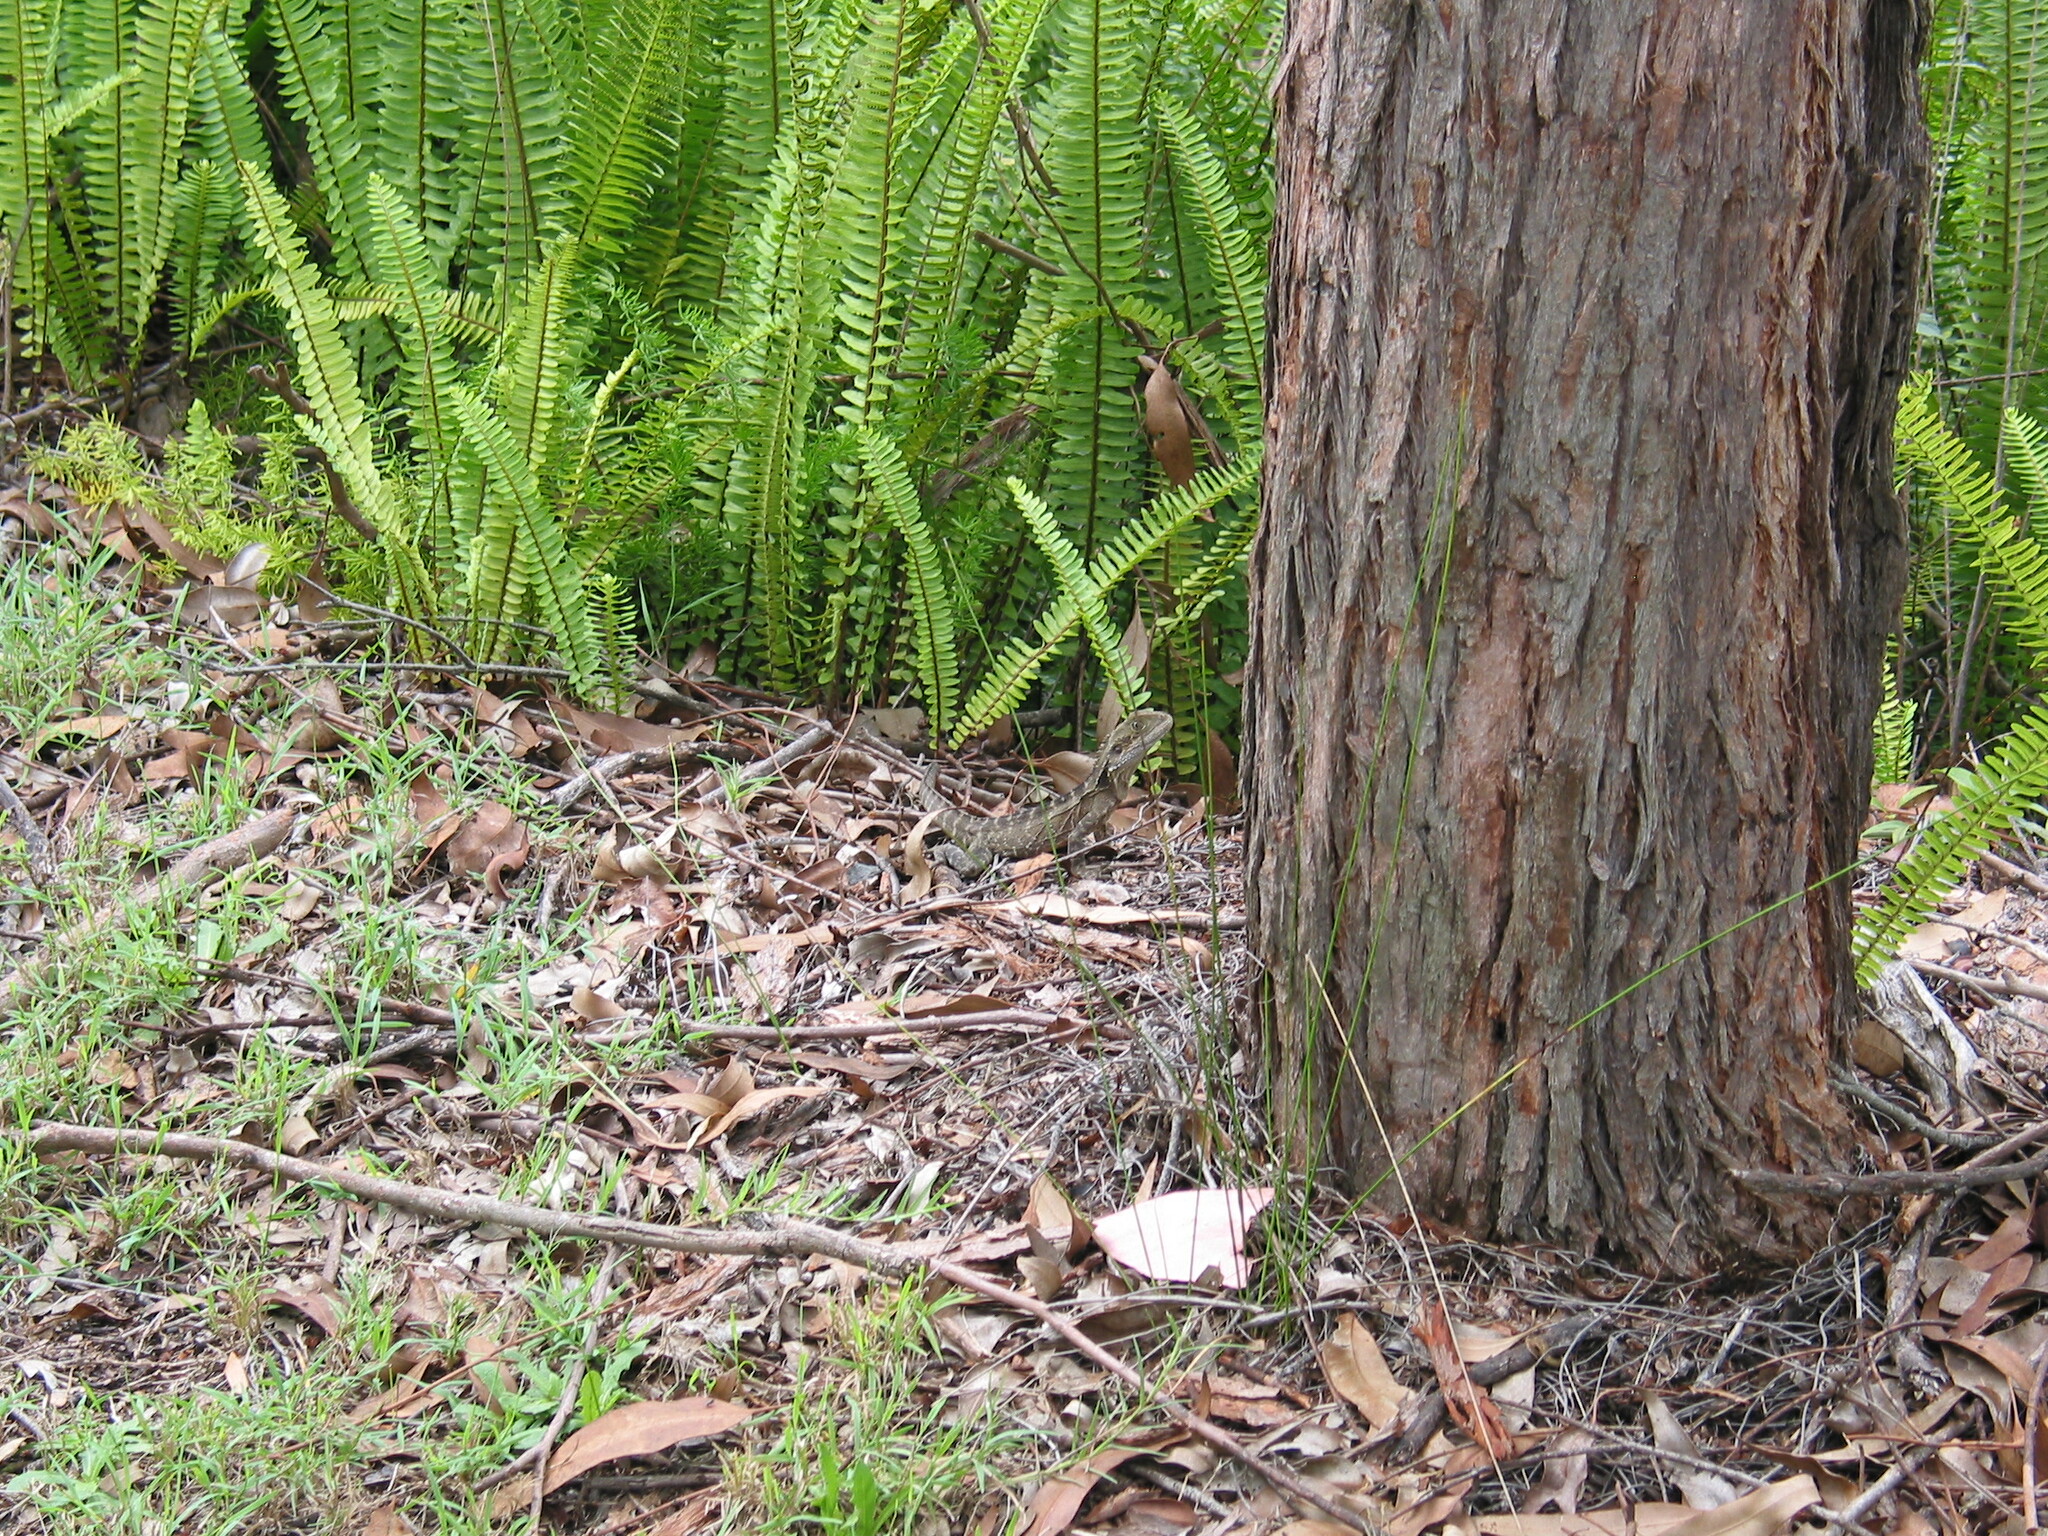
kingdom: Animalia
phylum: Chordata
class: Squamata
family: Agamidae
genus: Intellagama
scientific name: Intellagama lesueurii
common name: Eastern water dragon
